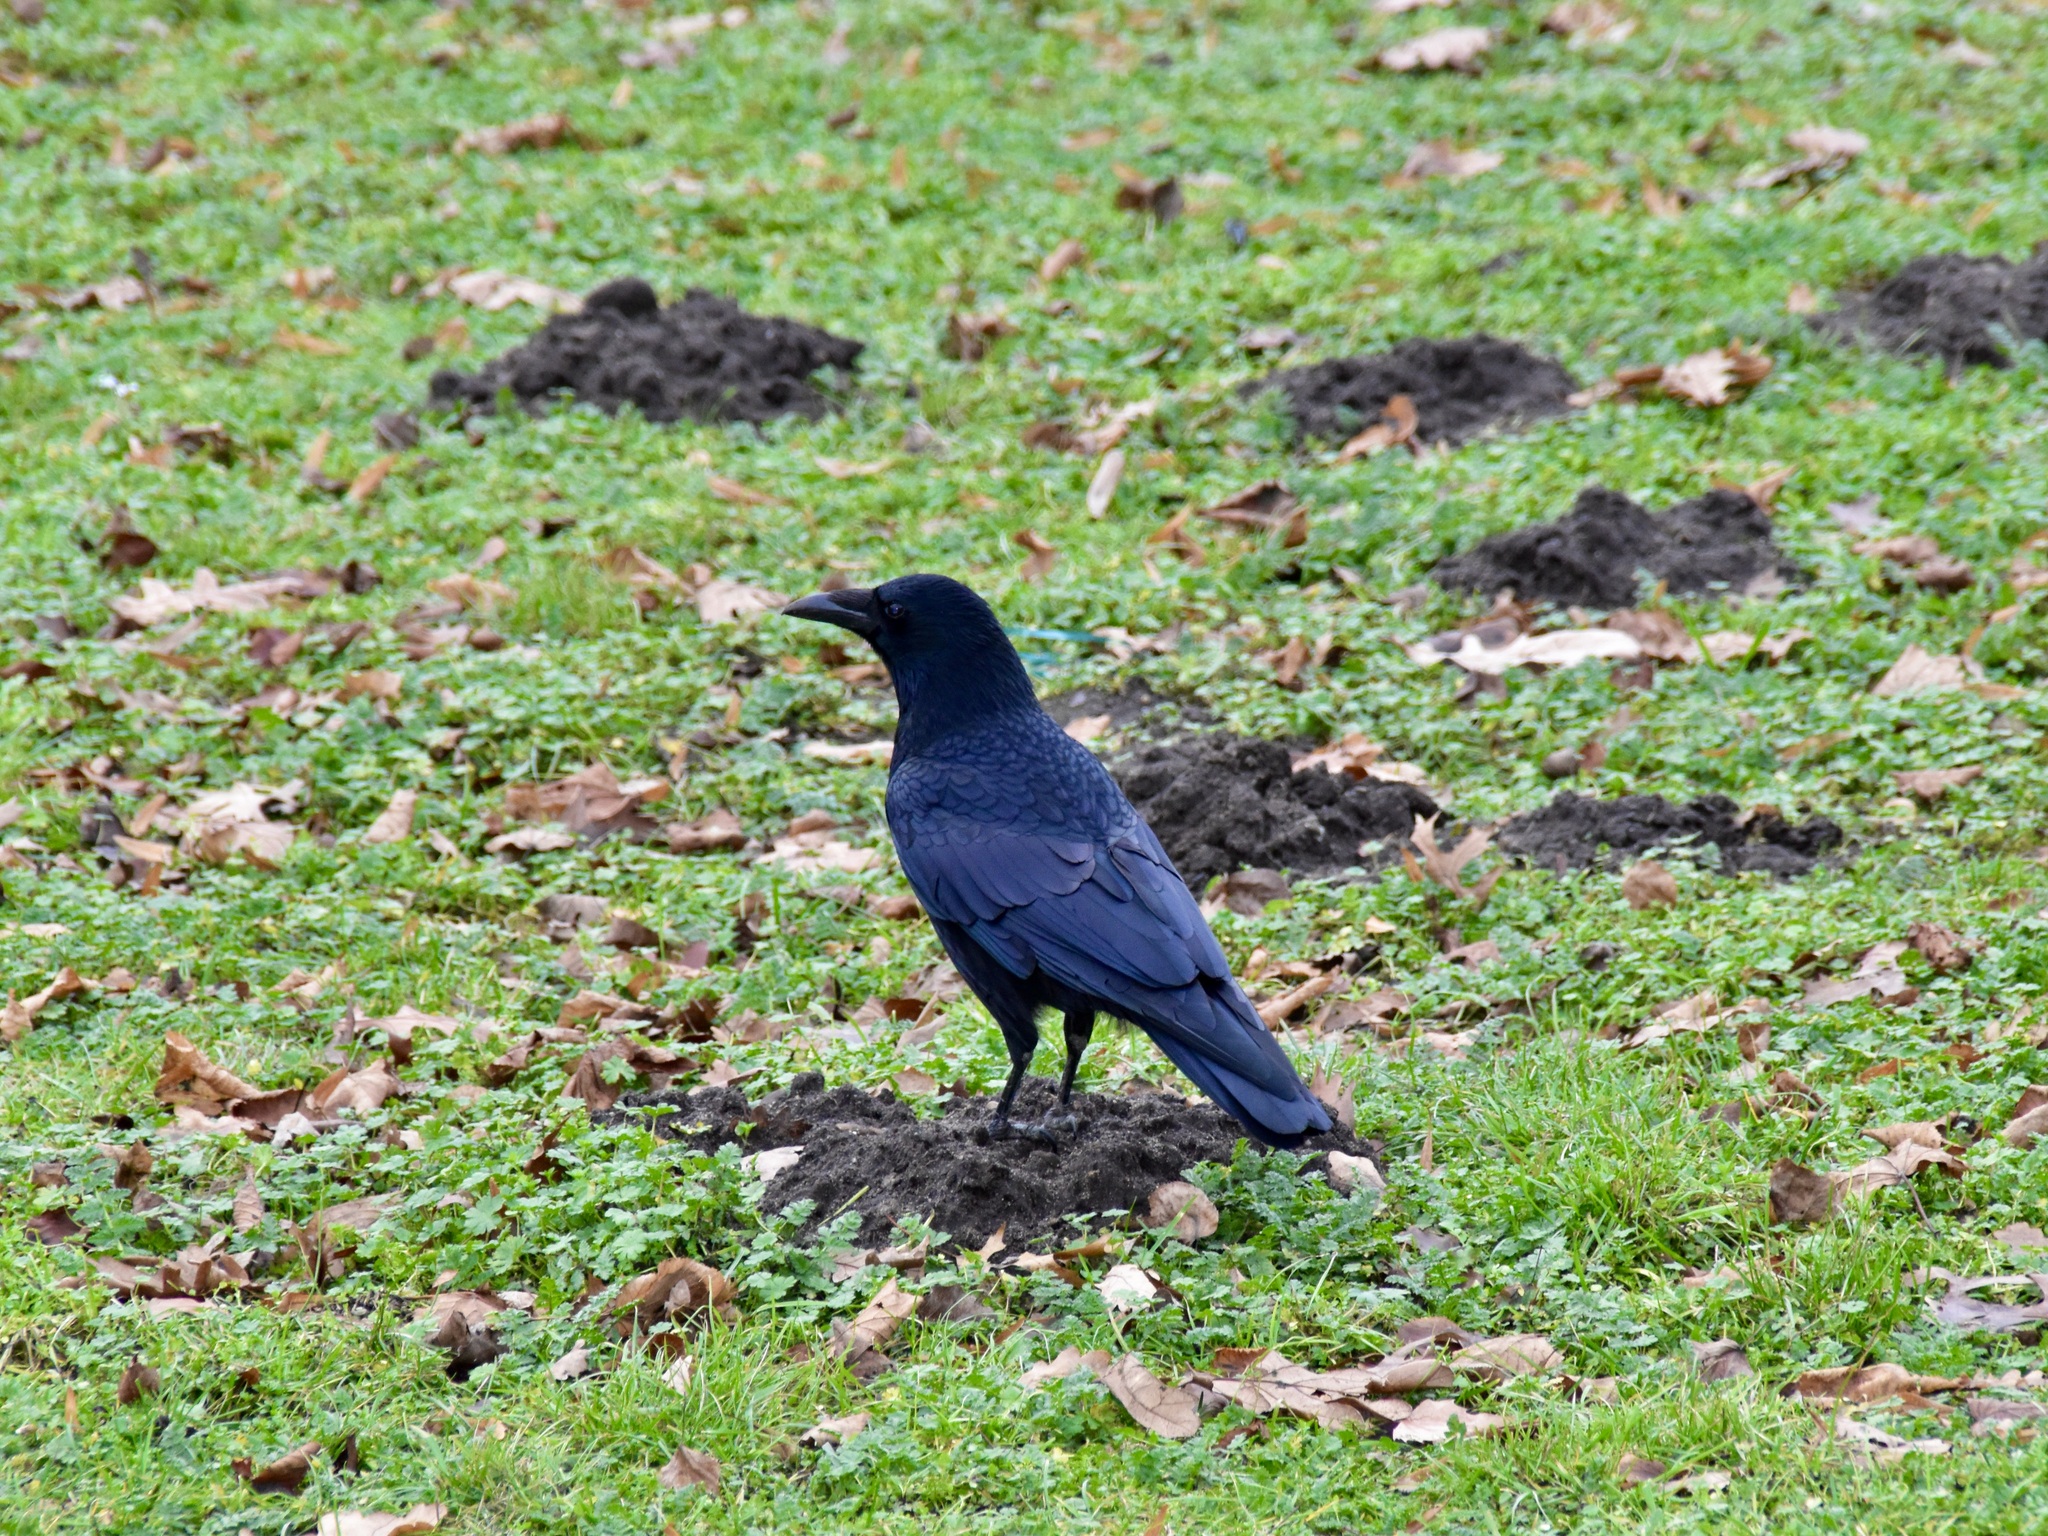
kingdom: Animalia
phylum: Chordata
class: Aves
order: Passeriformes
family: Corvidae
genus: Corvus
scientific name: Corvus corone
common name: Carrion crow
